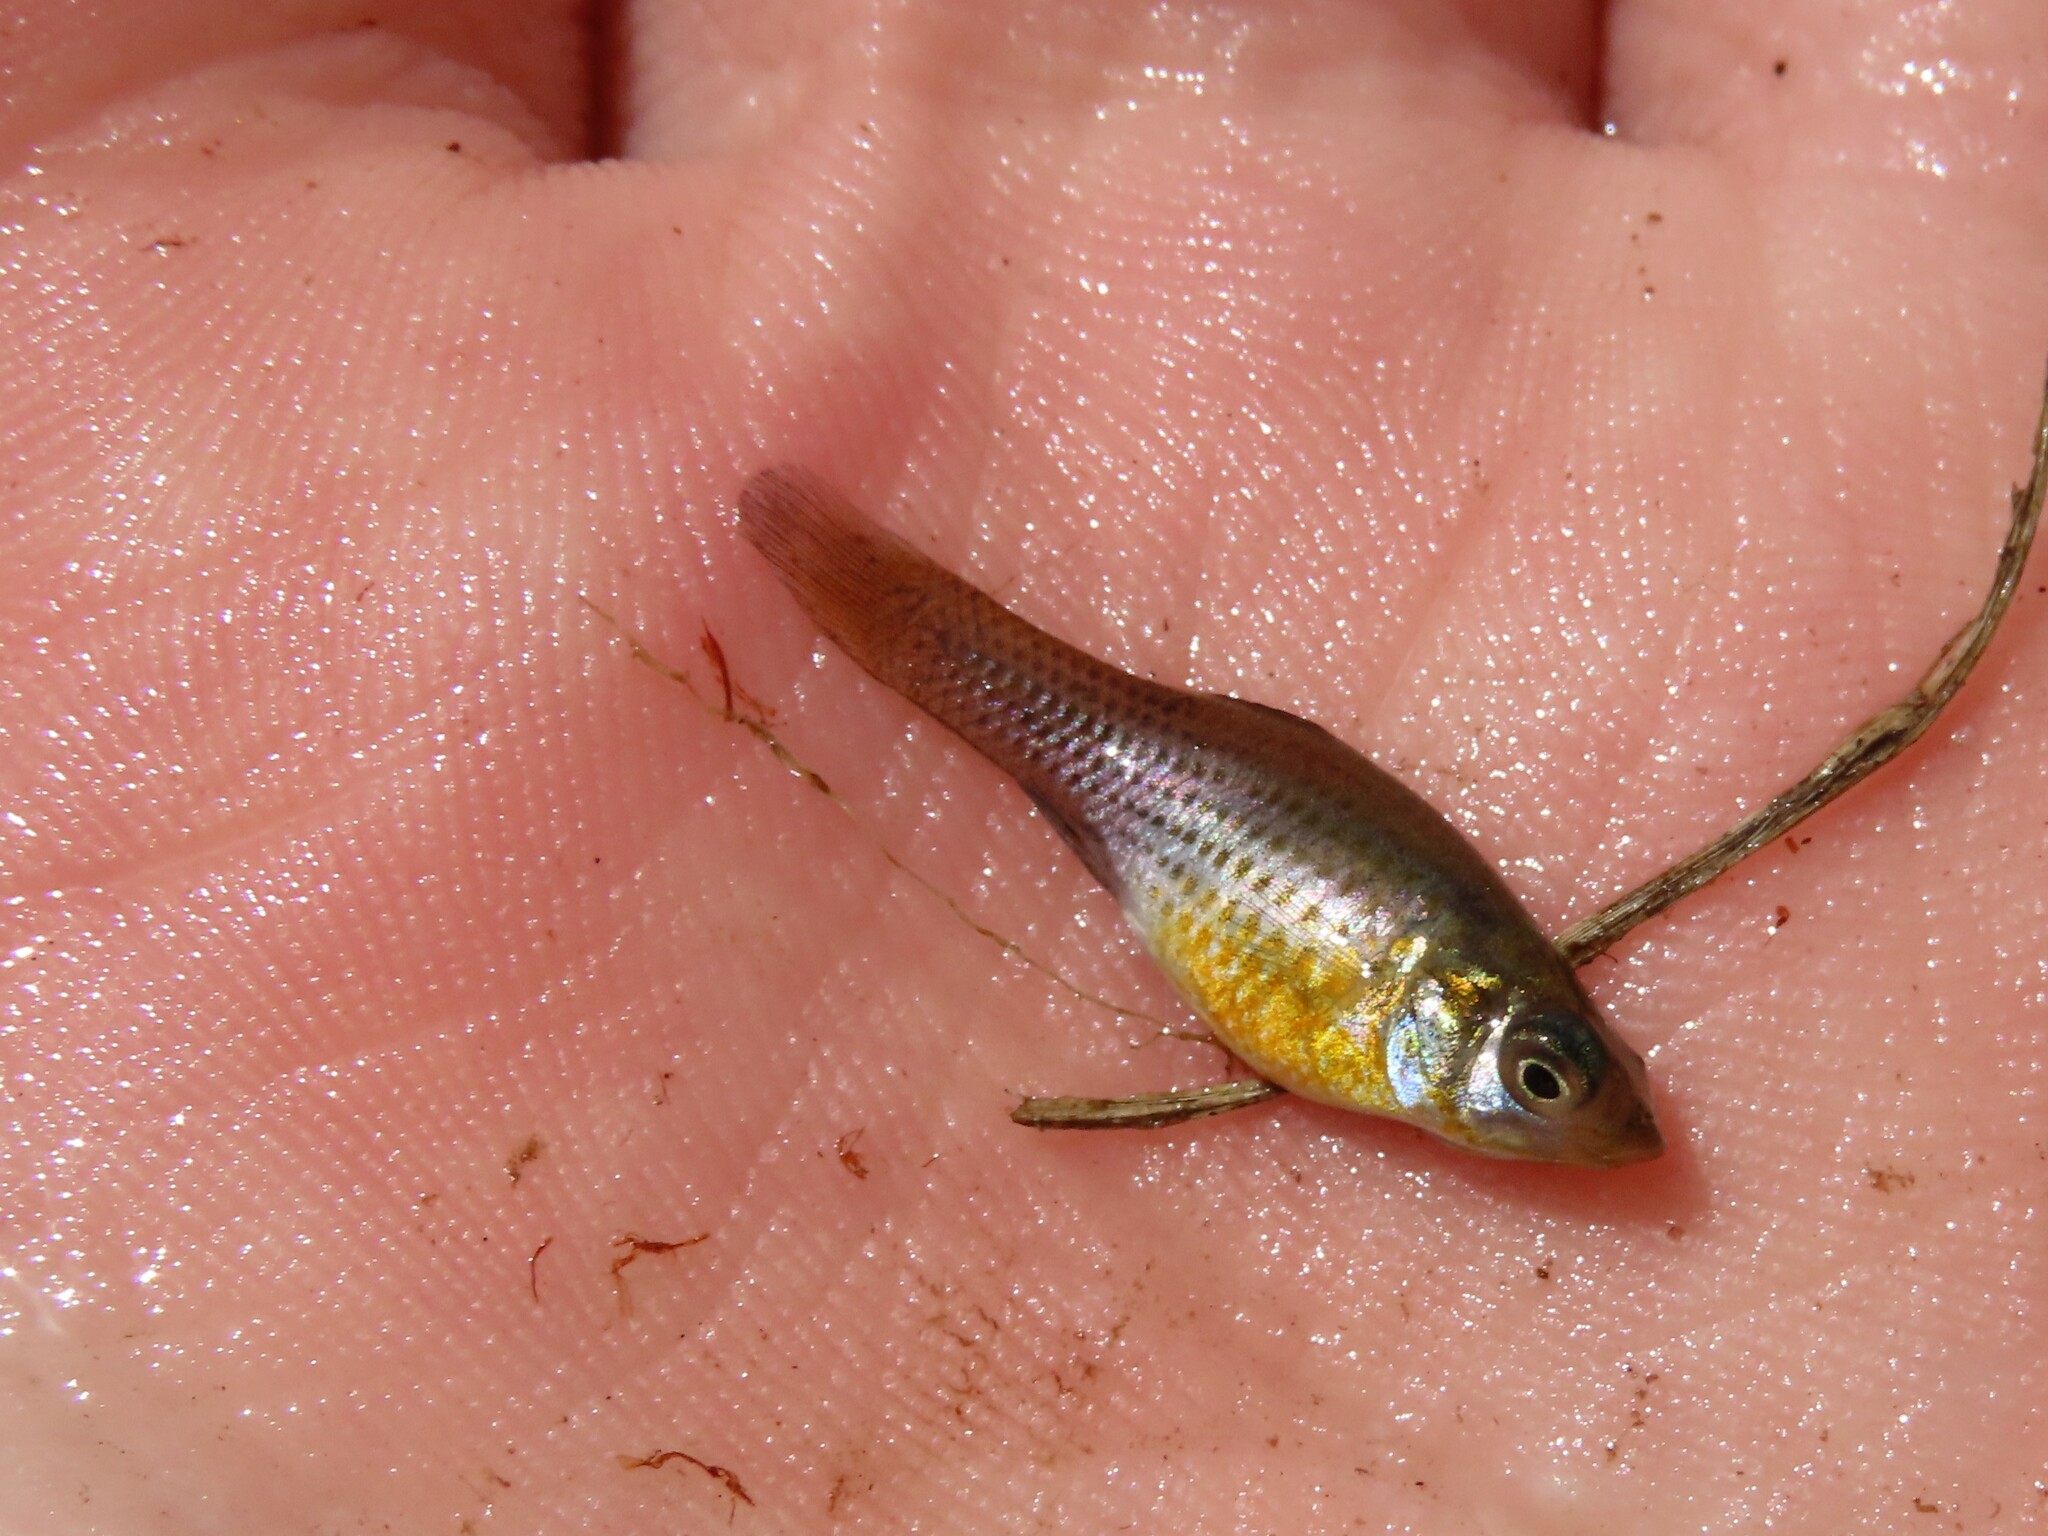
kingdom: Animalia
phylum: Chordata
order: Cyprinodontiformes
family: Poeciliidae
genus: Poecilia
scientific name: Poecilia latipinna
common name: Sailfin molly
